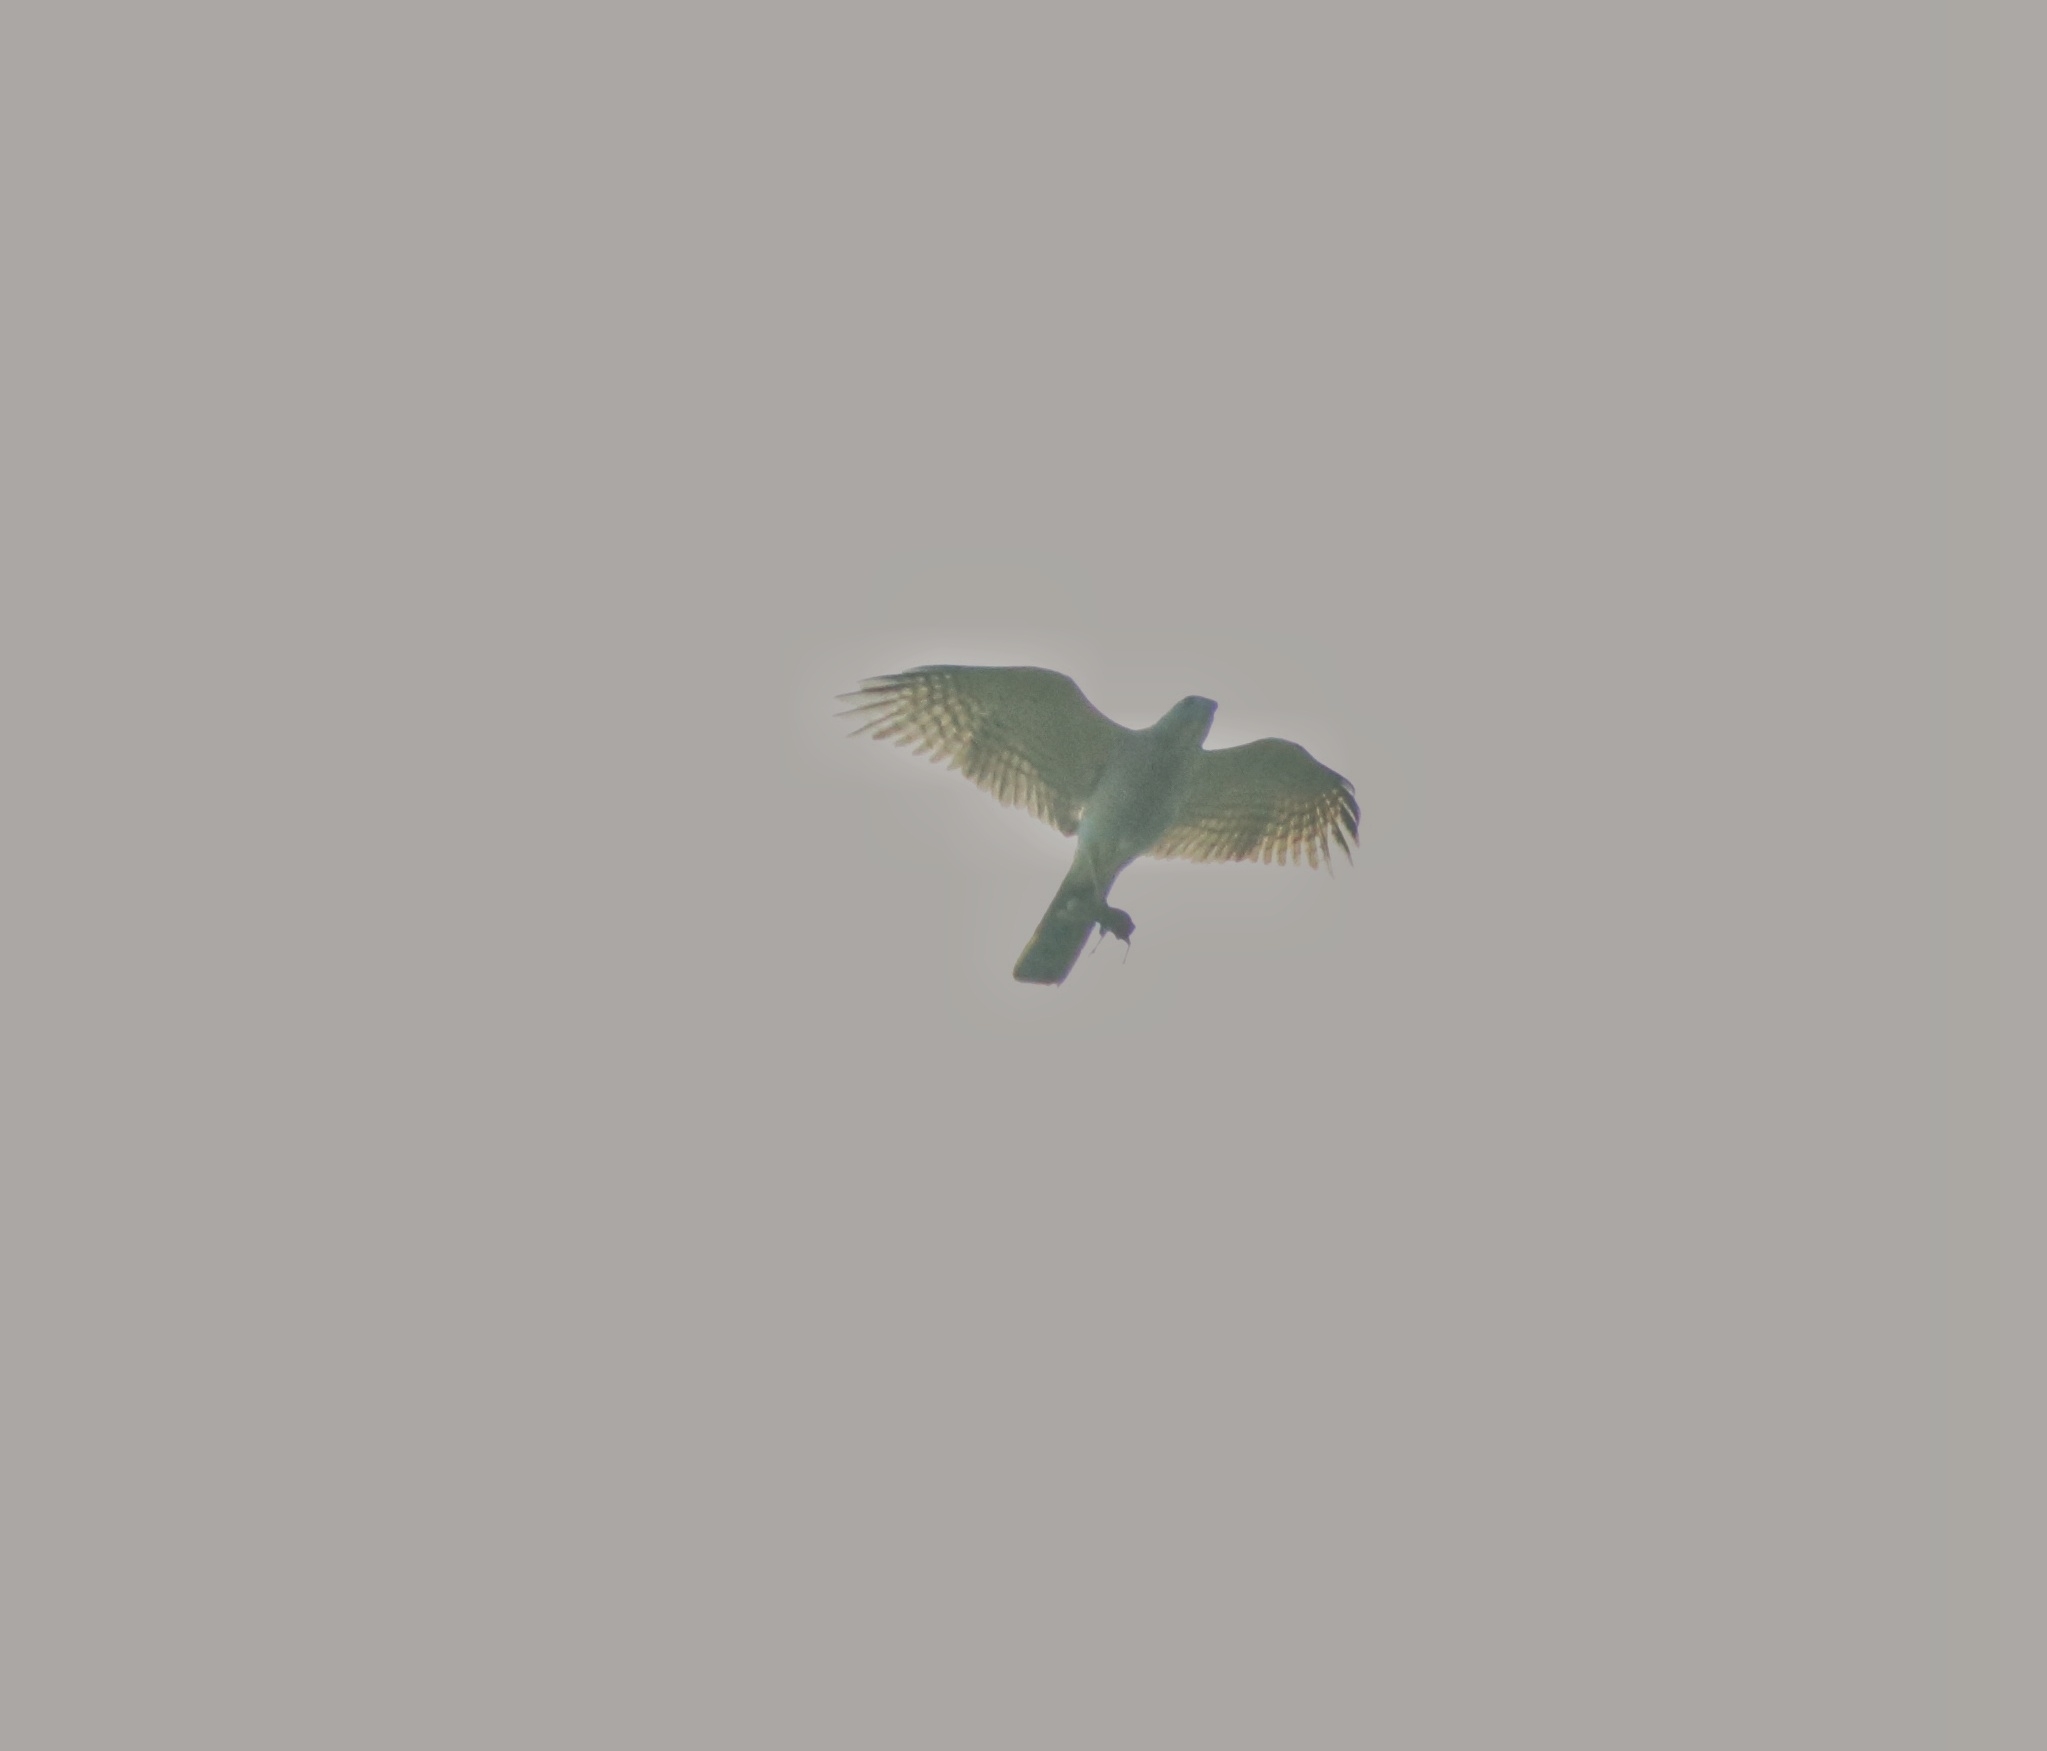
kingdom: Animalia
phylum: Chordata
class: Aves
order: Accipitriformes
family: Accipitridae
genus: Accipiter
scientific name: Accipiter badius
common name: Shikra
